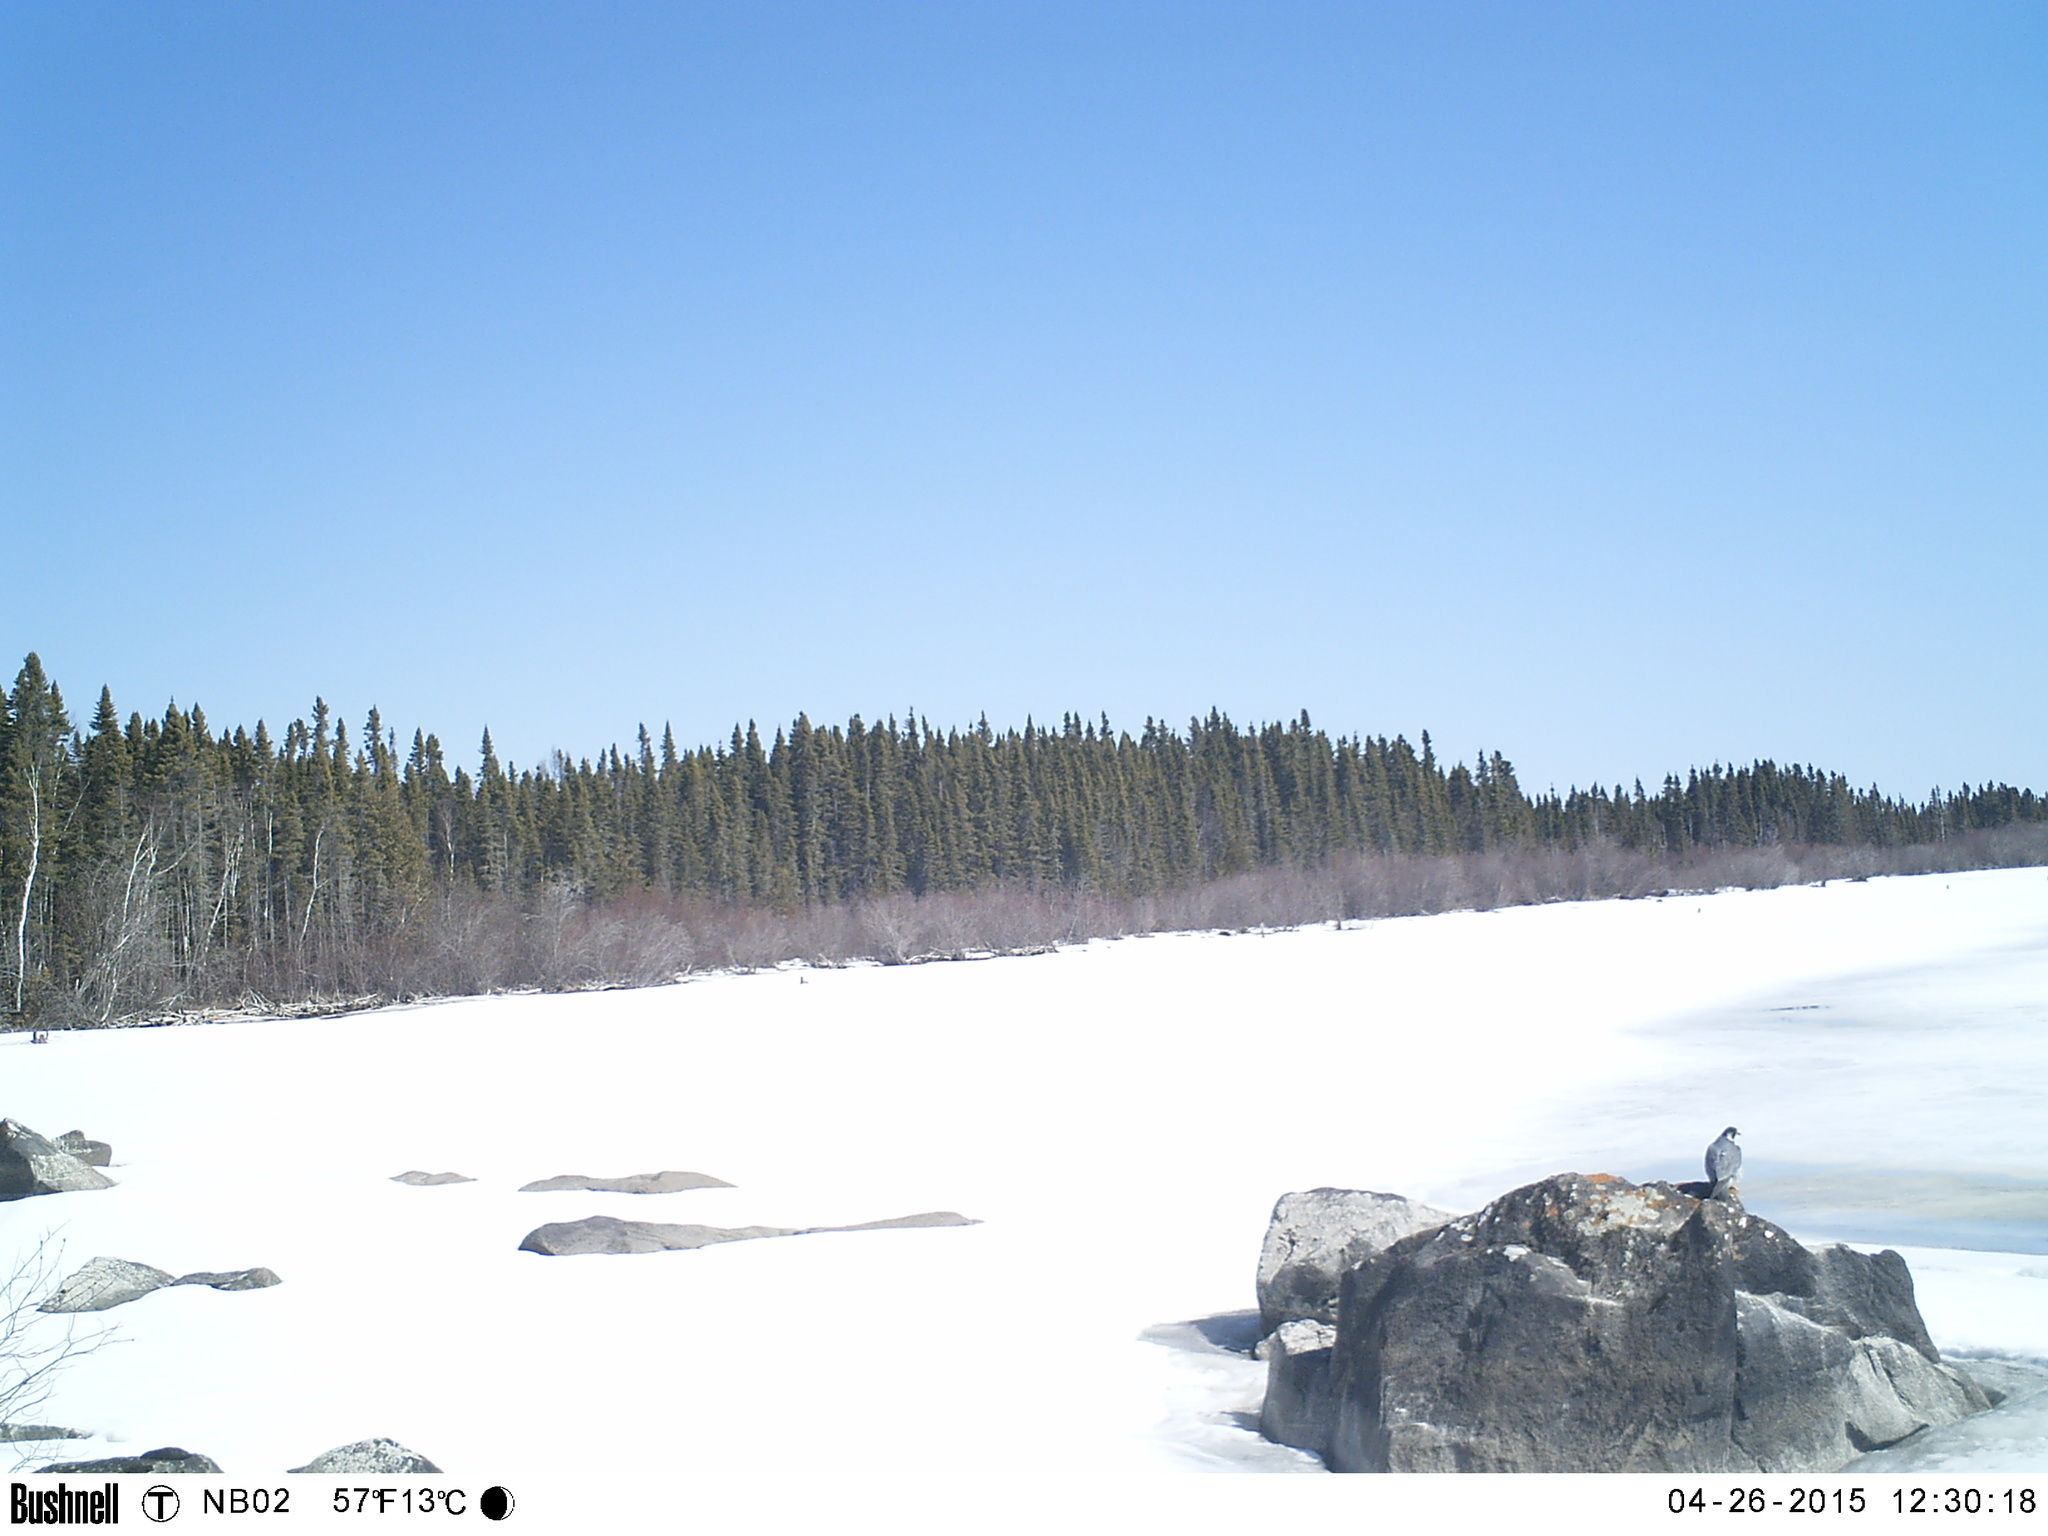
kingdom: Animalia
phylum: Chordata
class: Aves
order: Falconiformes
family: Falconidae
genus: Falco
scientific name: Falco peregrinus
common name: Peregrine falcon
